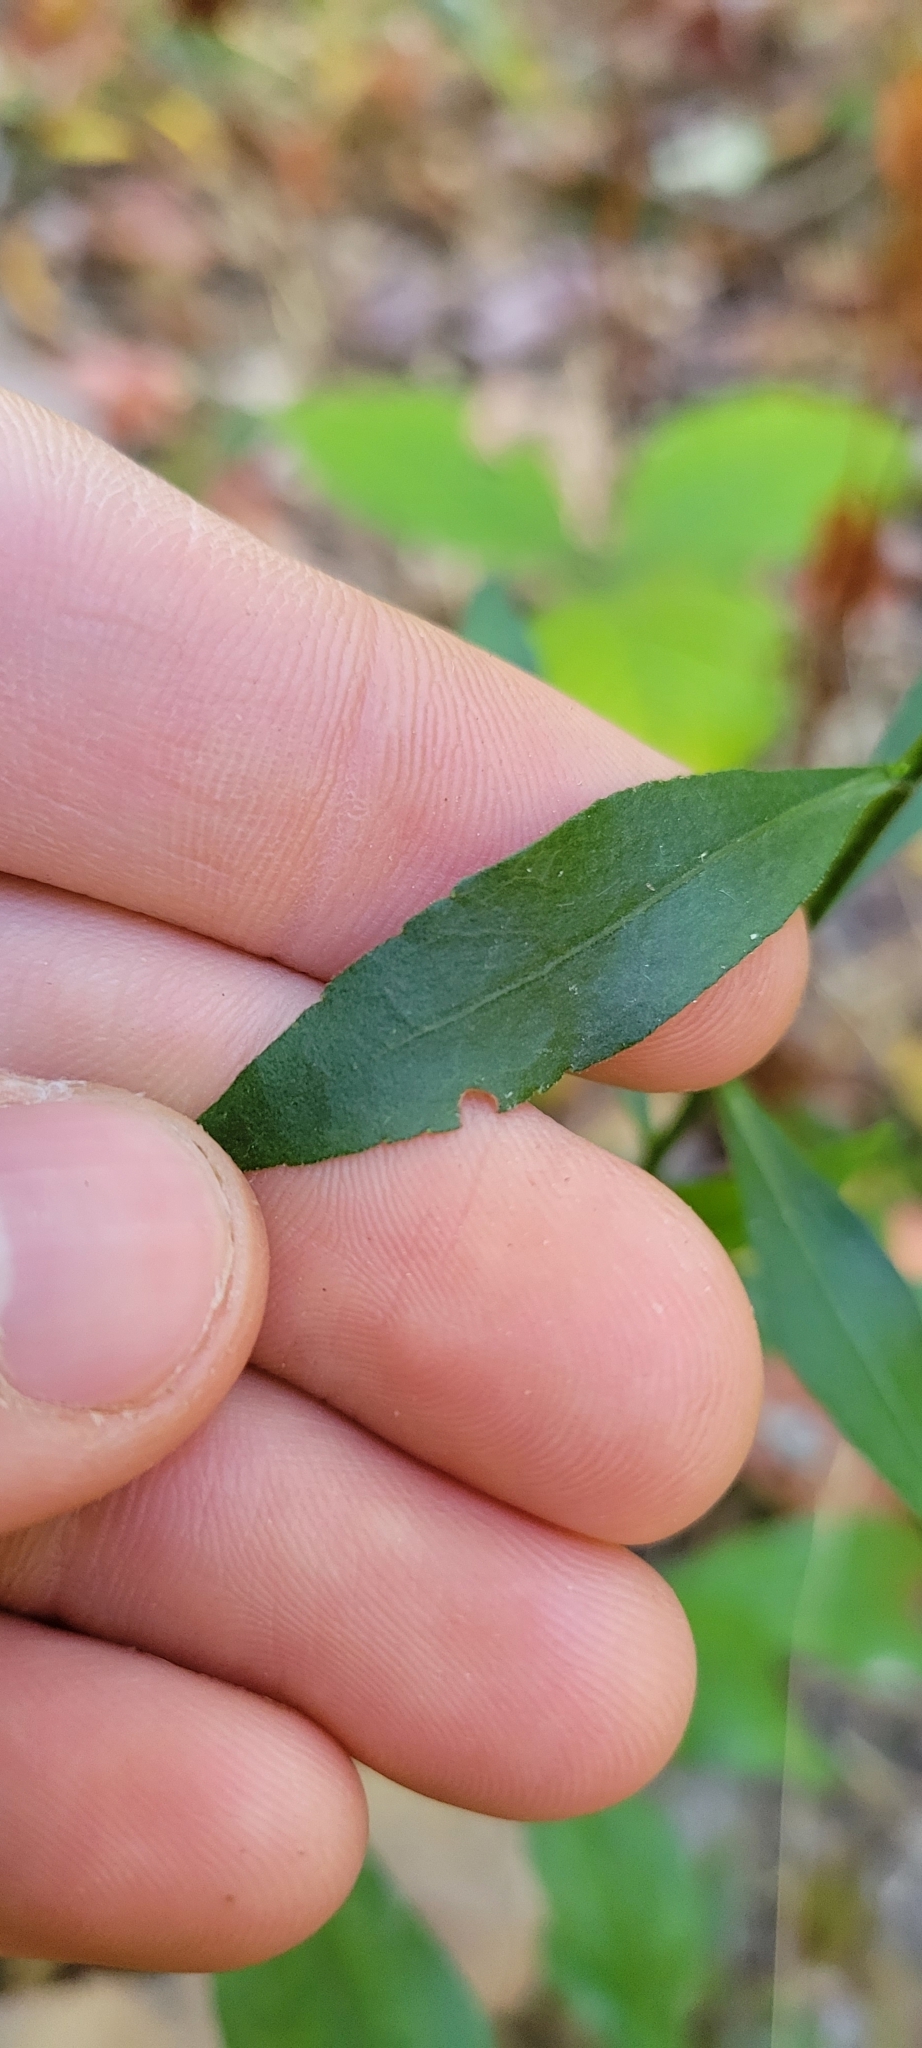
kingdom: Plantae
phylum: Tracheophyta
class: Magnoliopsida
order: Asterales
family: Asteraceae
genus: Solidago
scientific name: Solidago erecta
